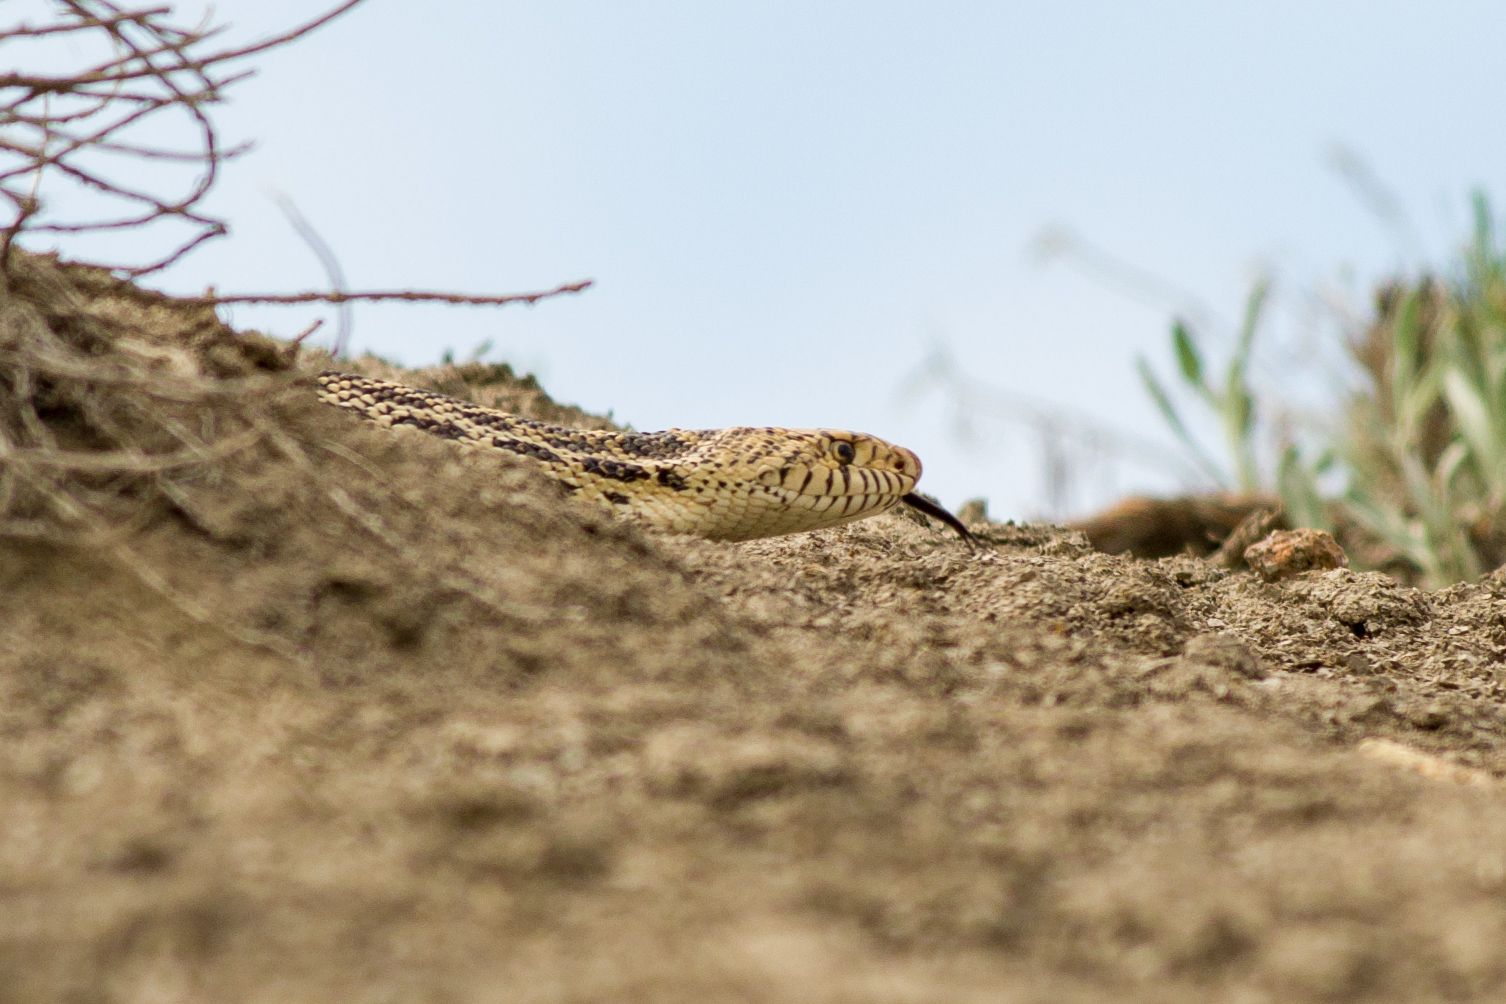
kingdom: Animalia
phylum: Chordata
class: Squamata
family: Colubridae
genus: Pituophis
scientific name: Pituophis catenifer
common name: Gopher snake
